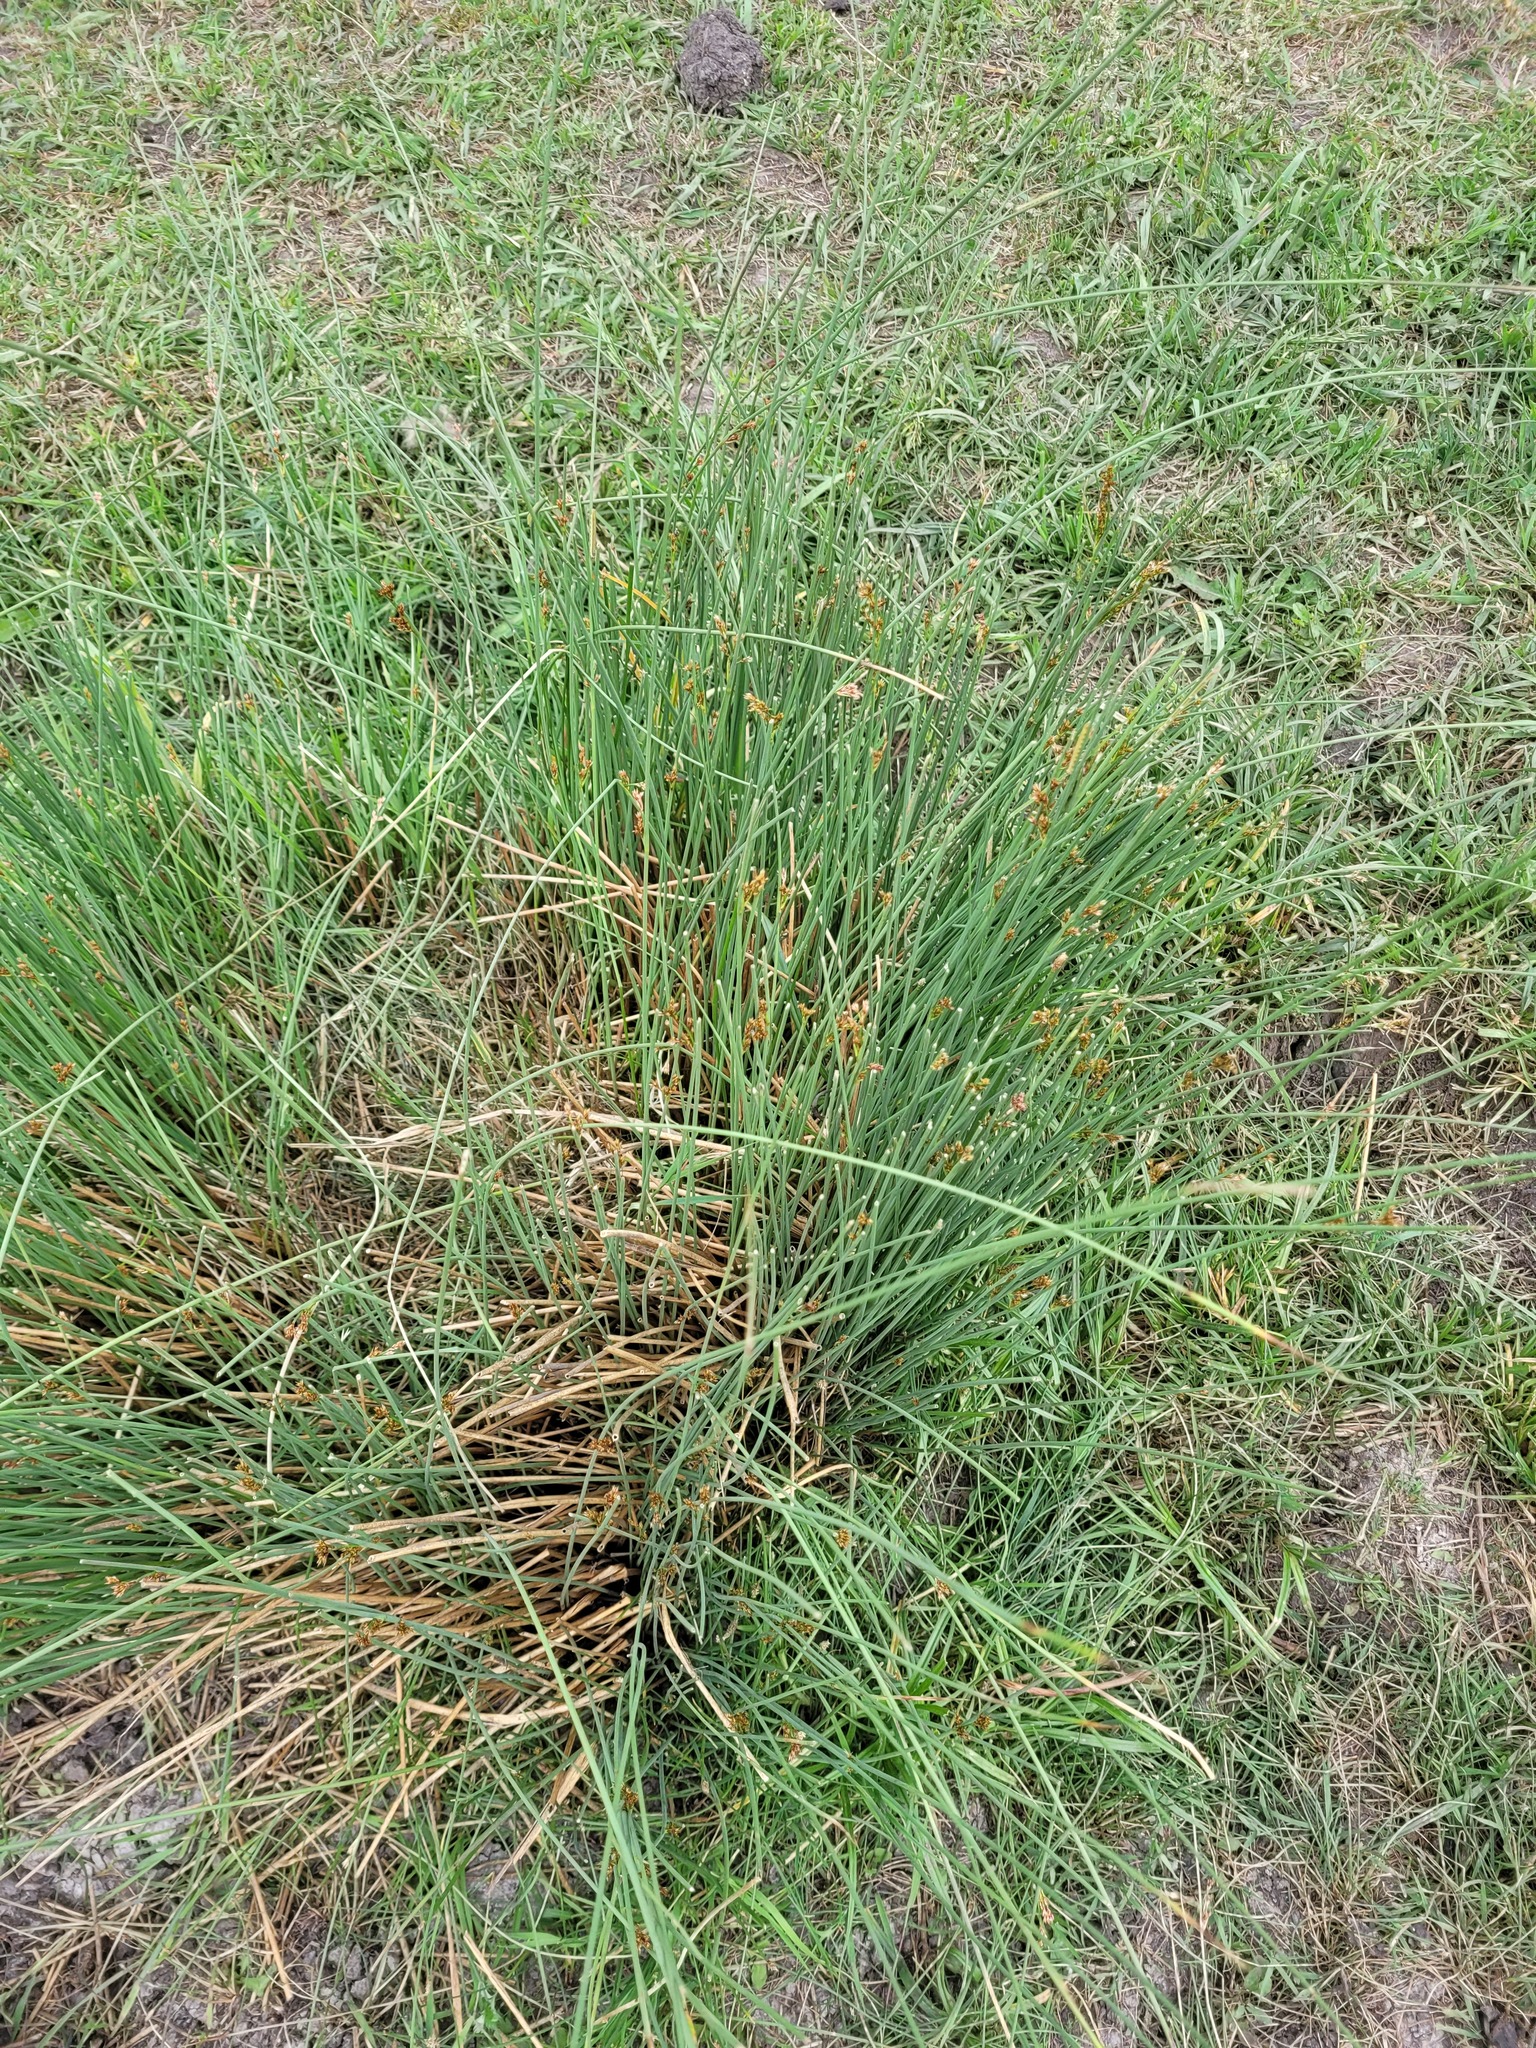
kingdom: Plantae
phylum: Tracheophyta
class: Liliopsida
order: Poales
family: Juncaceae
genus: Juncus
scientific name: Juncus inflexus
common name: Hard rush
